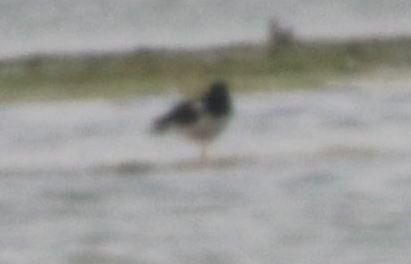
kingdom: Animalia
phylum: Chordata
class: Aves
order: Charadriiformes
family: Haematopodidae
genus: Haematopus
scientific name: Haematopus ostralegus
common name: Eurasian oystercatcher
